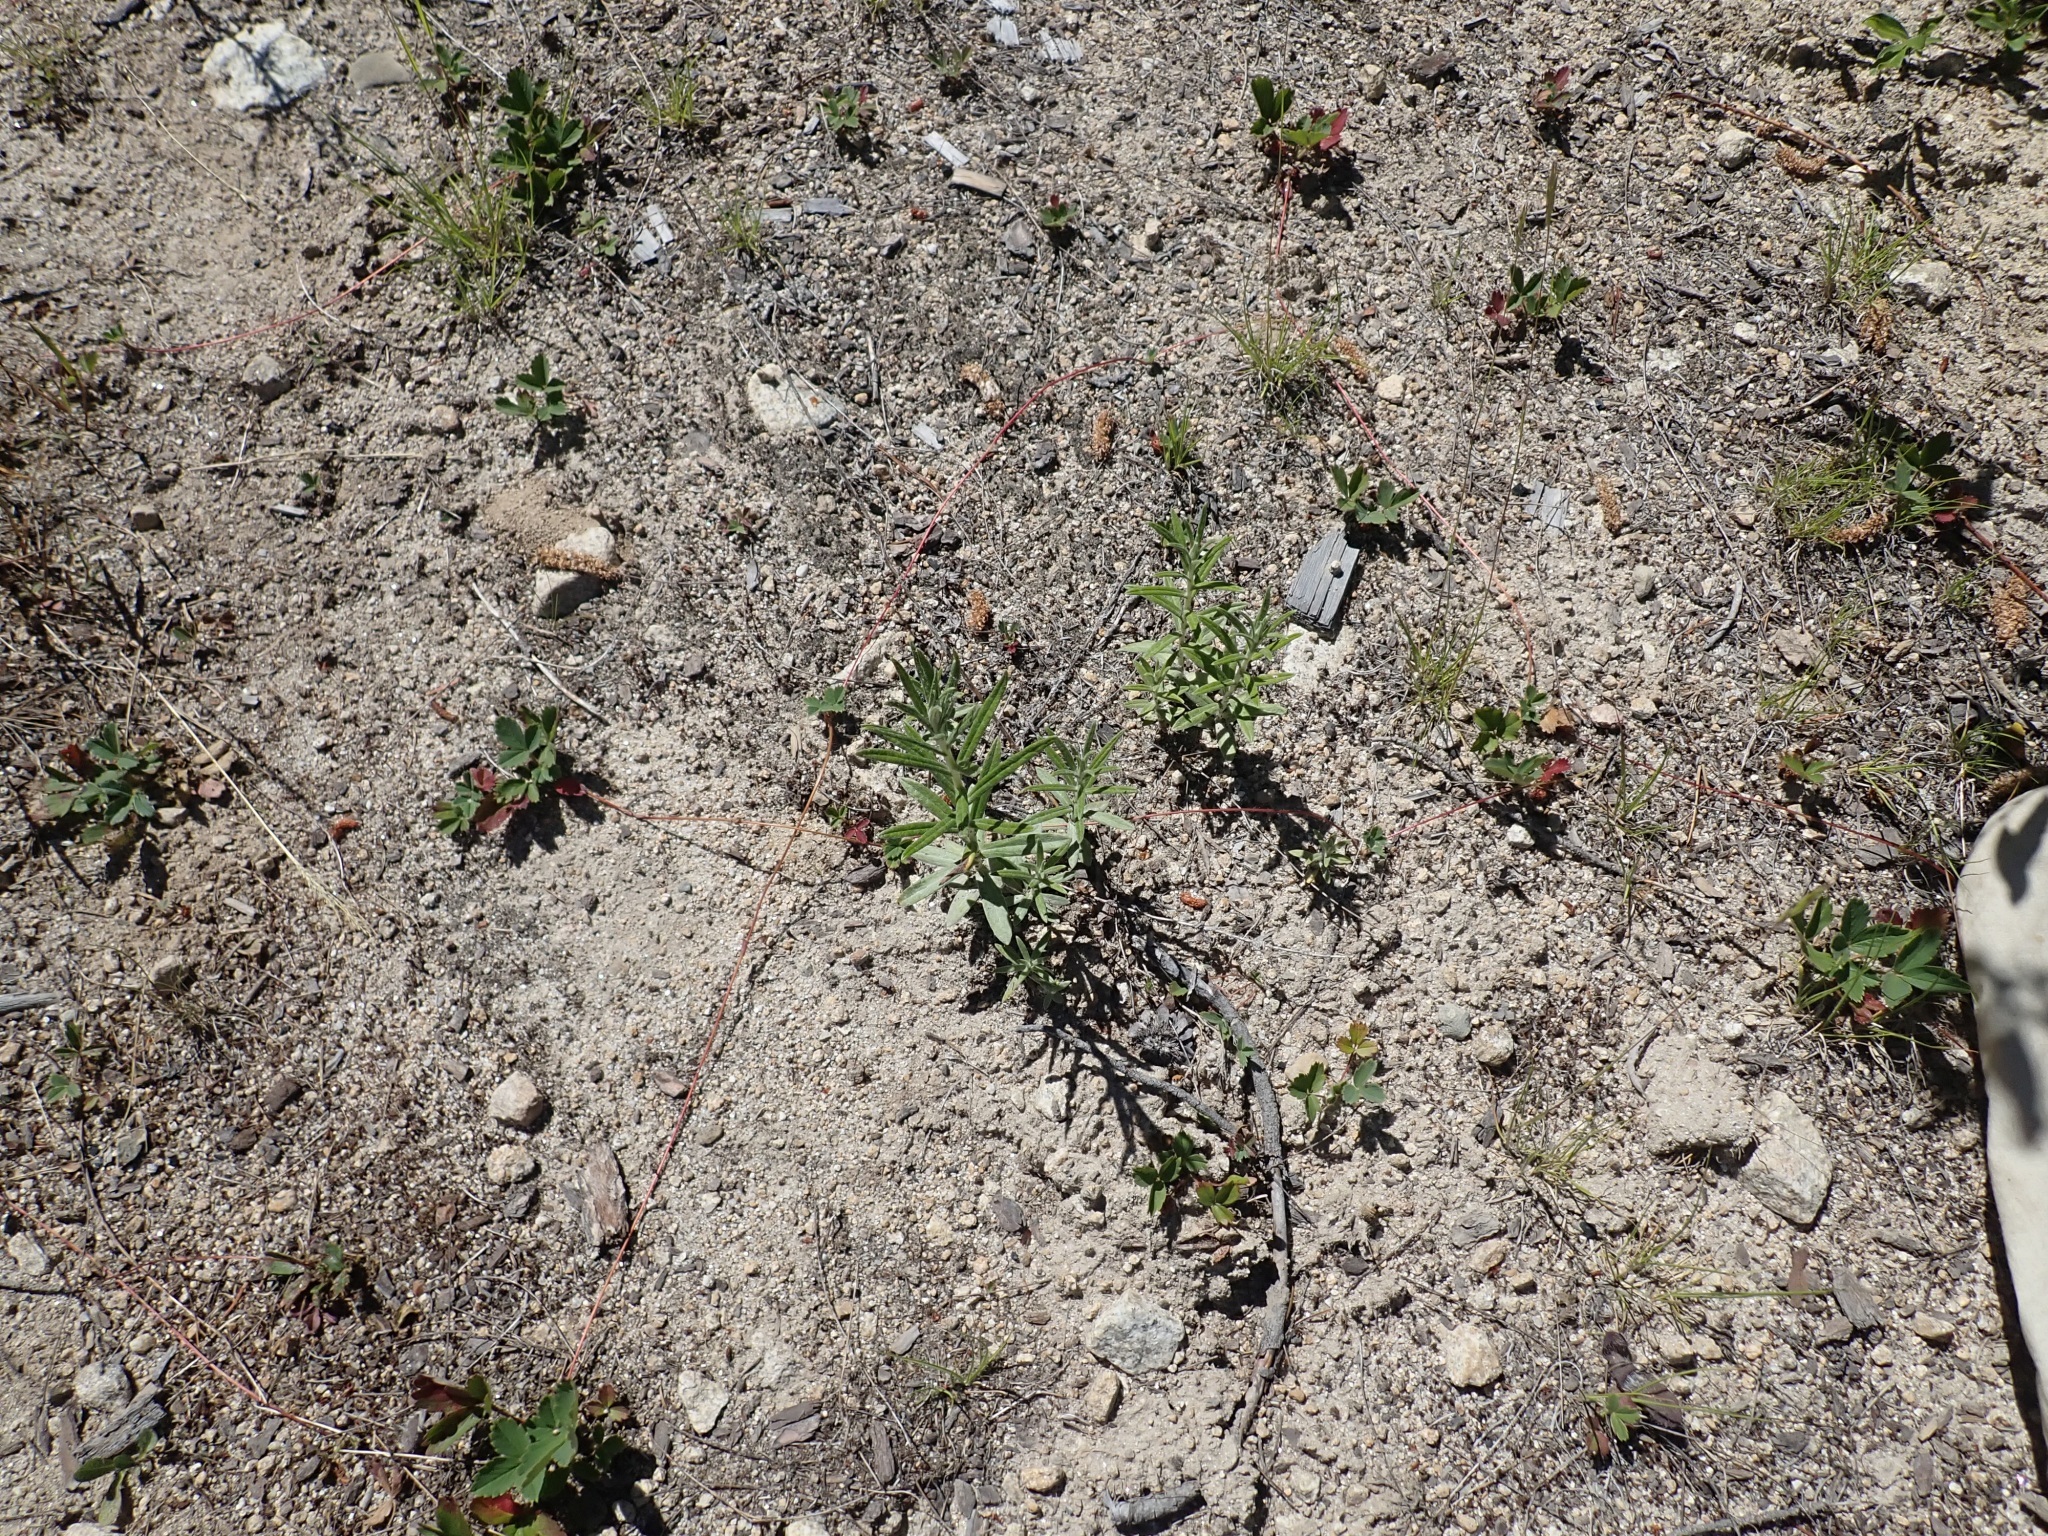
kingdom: Plantae
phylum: Tracheophyta
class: Magnoliopsida
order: Asterales
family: Asteraceae
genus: Anaphalis
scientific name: Anaphalis margaritacea
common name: Pearly everlasting
